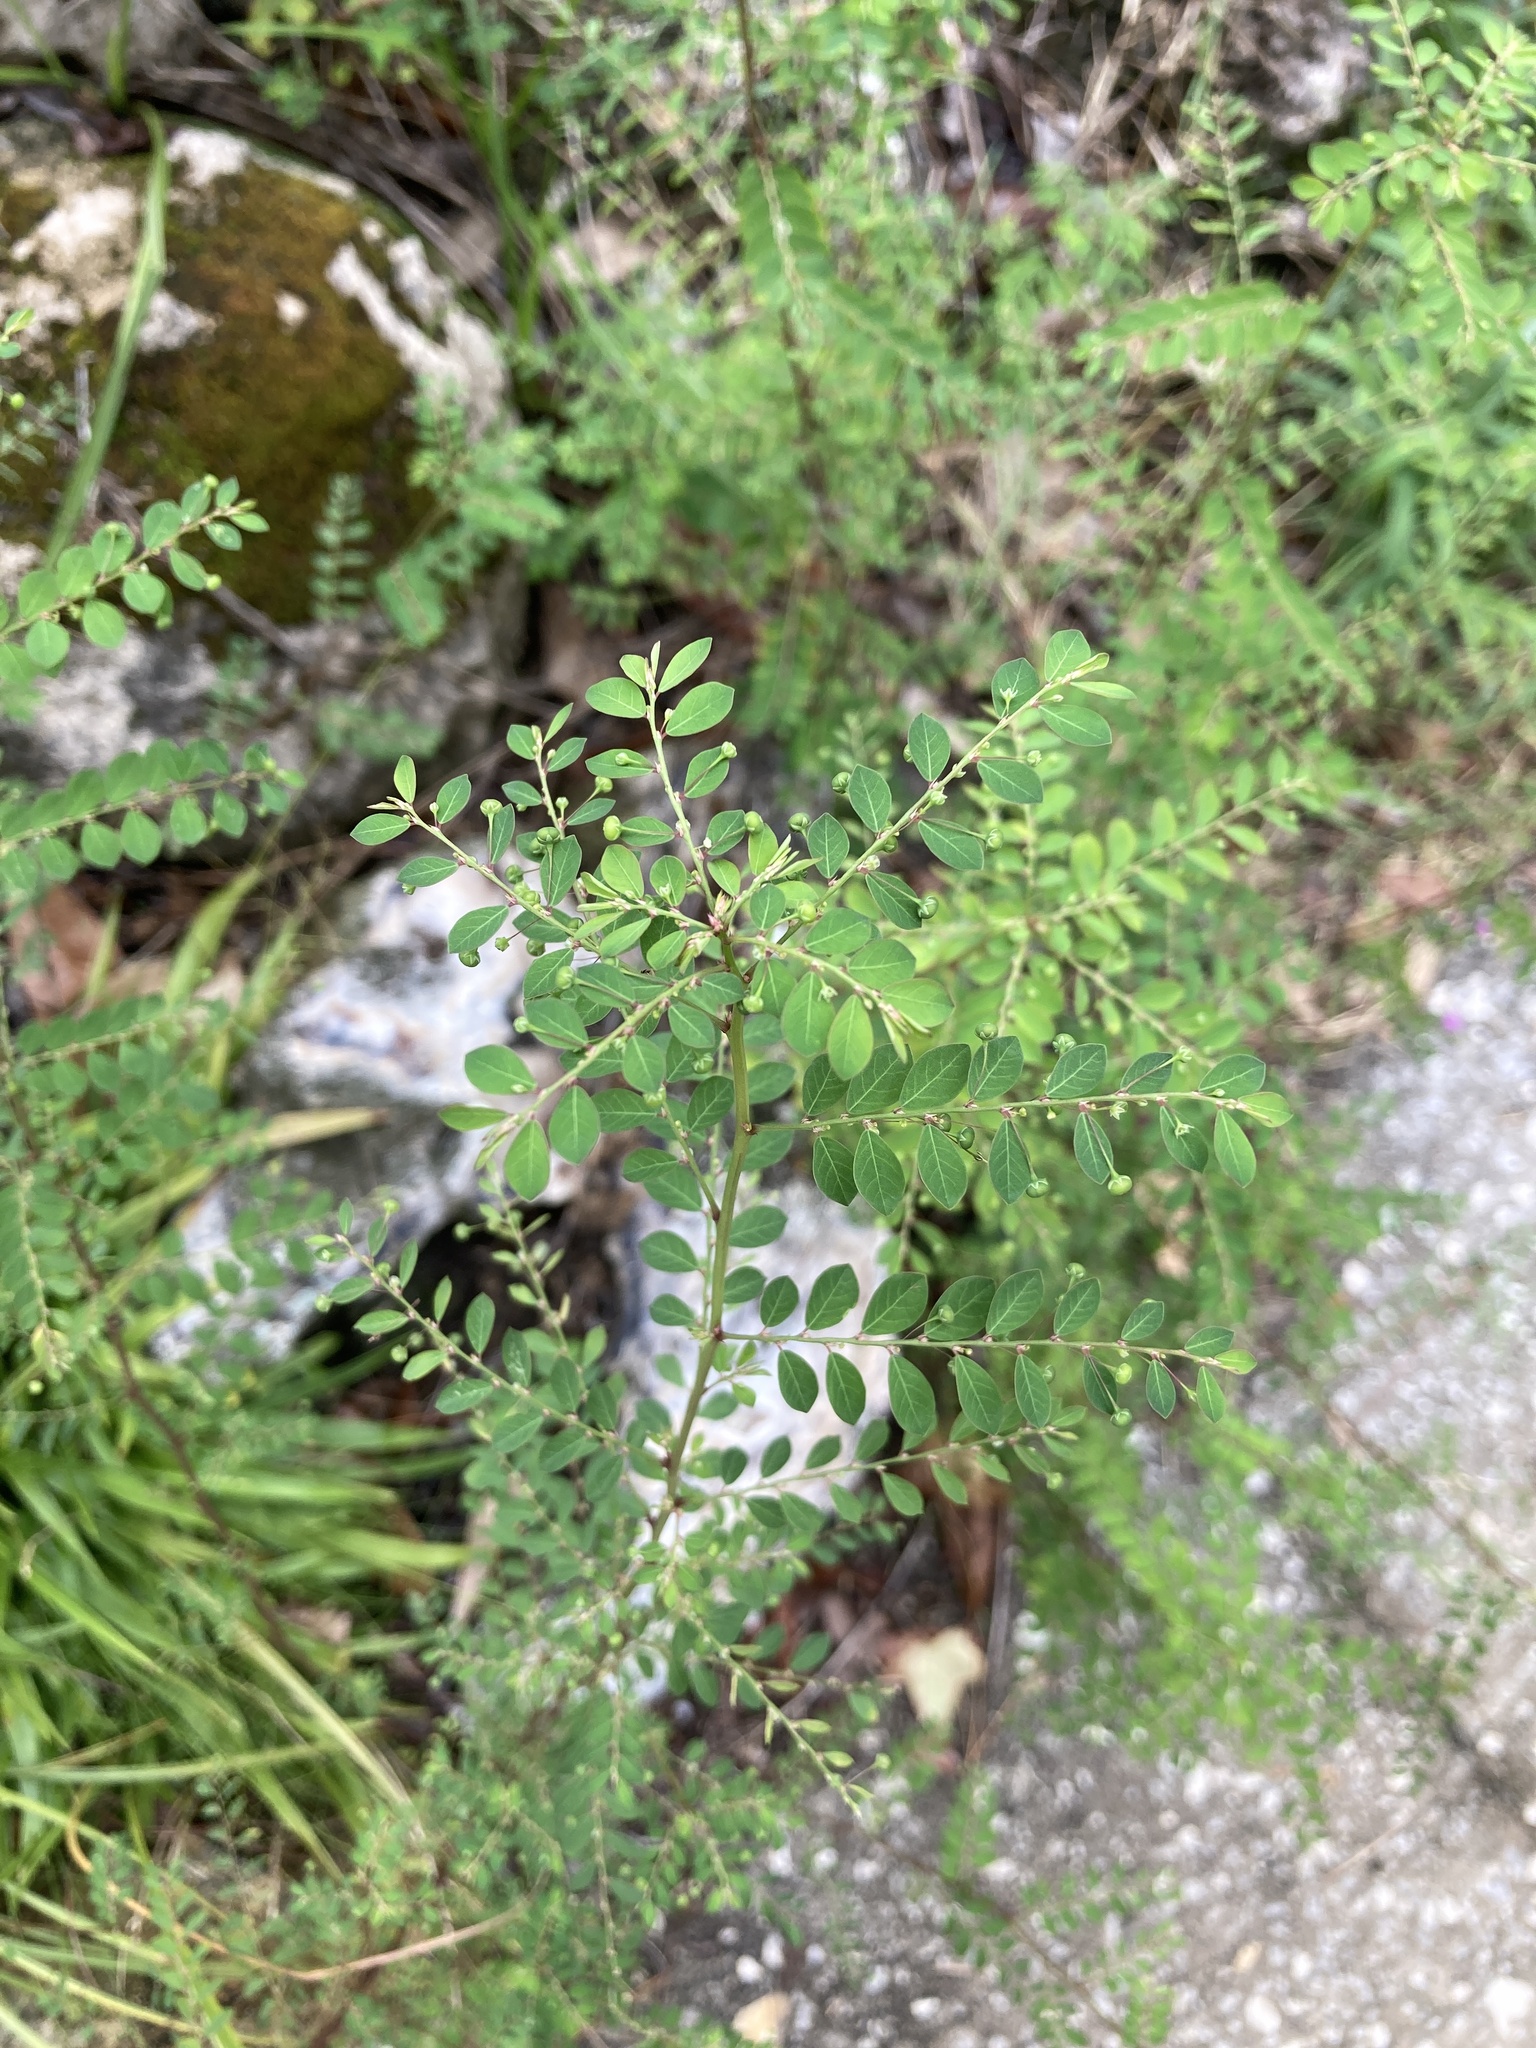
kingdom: Plantae
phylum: Tracheophyta
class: Magnoliopsida
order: Malpighiales
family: Phyllanthaceae
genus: Phyllanthus
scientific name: Phyllanthus tenellus
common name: Mascarene island leaf-flower
